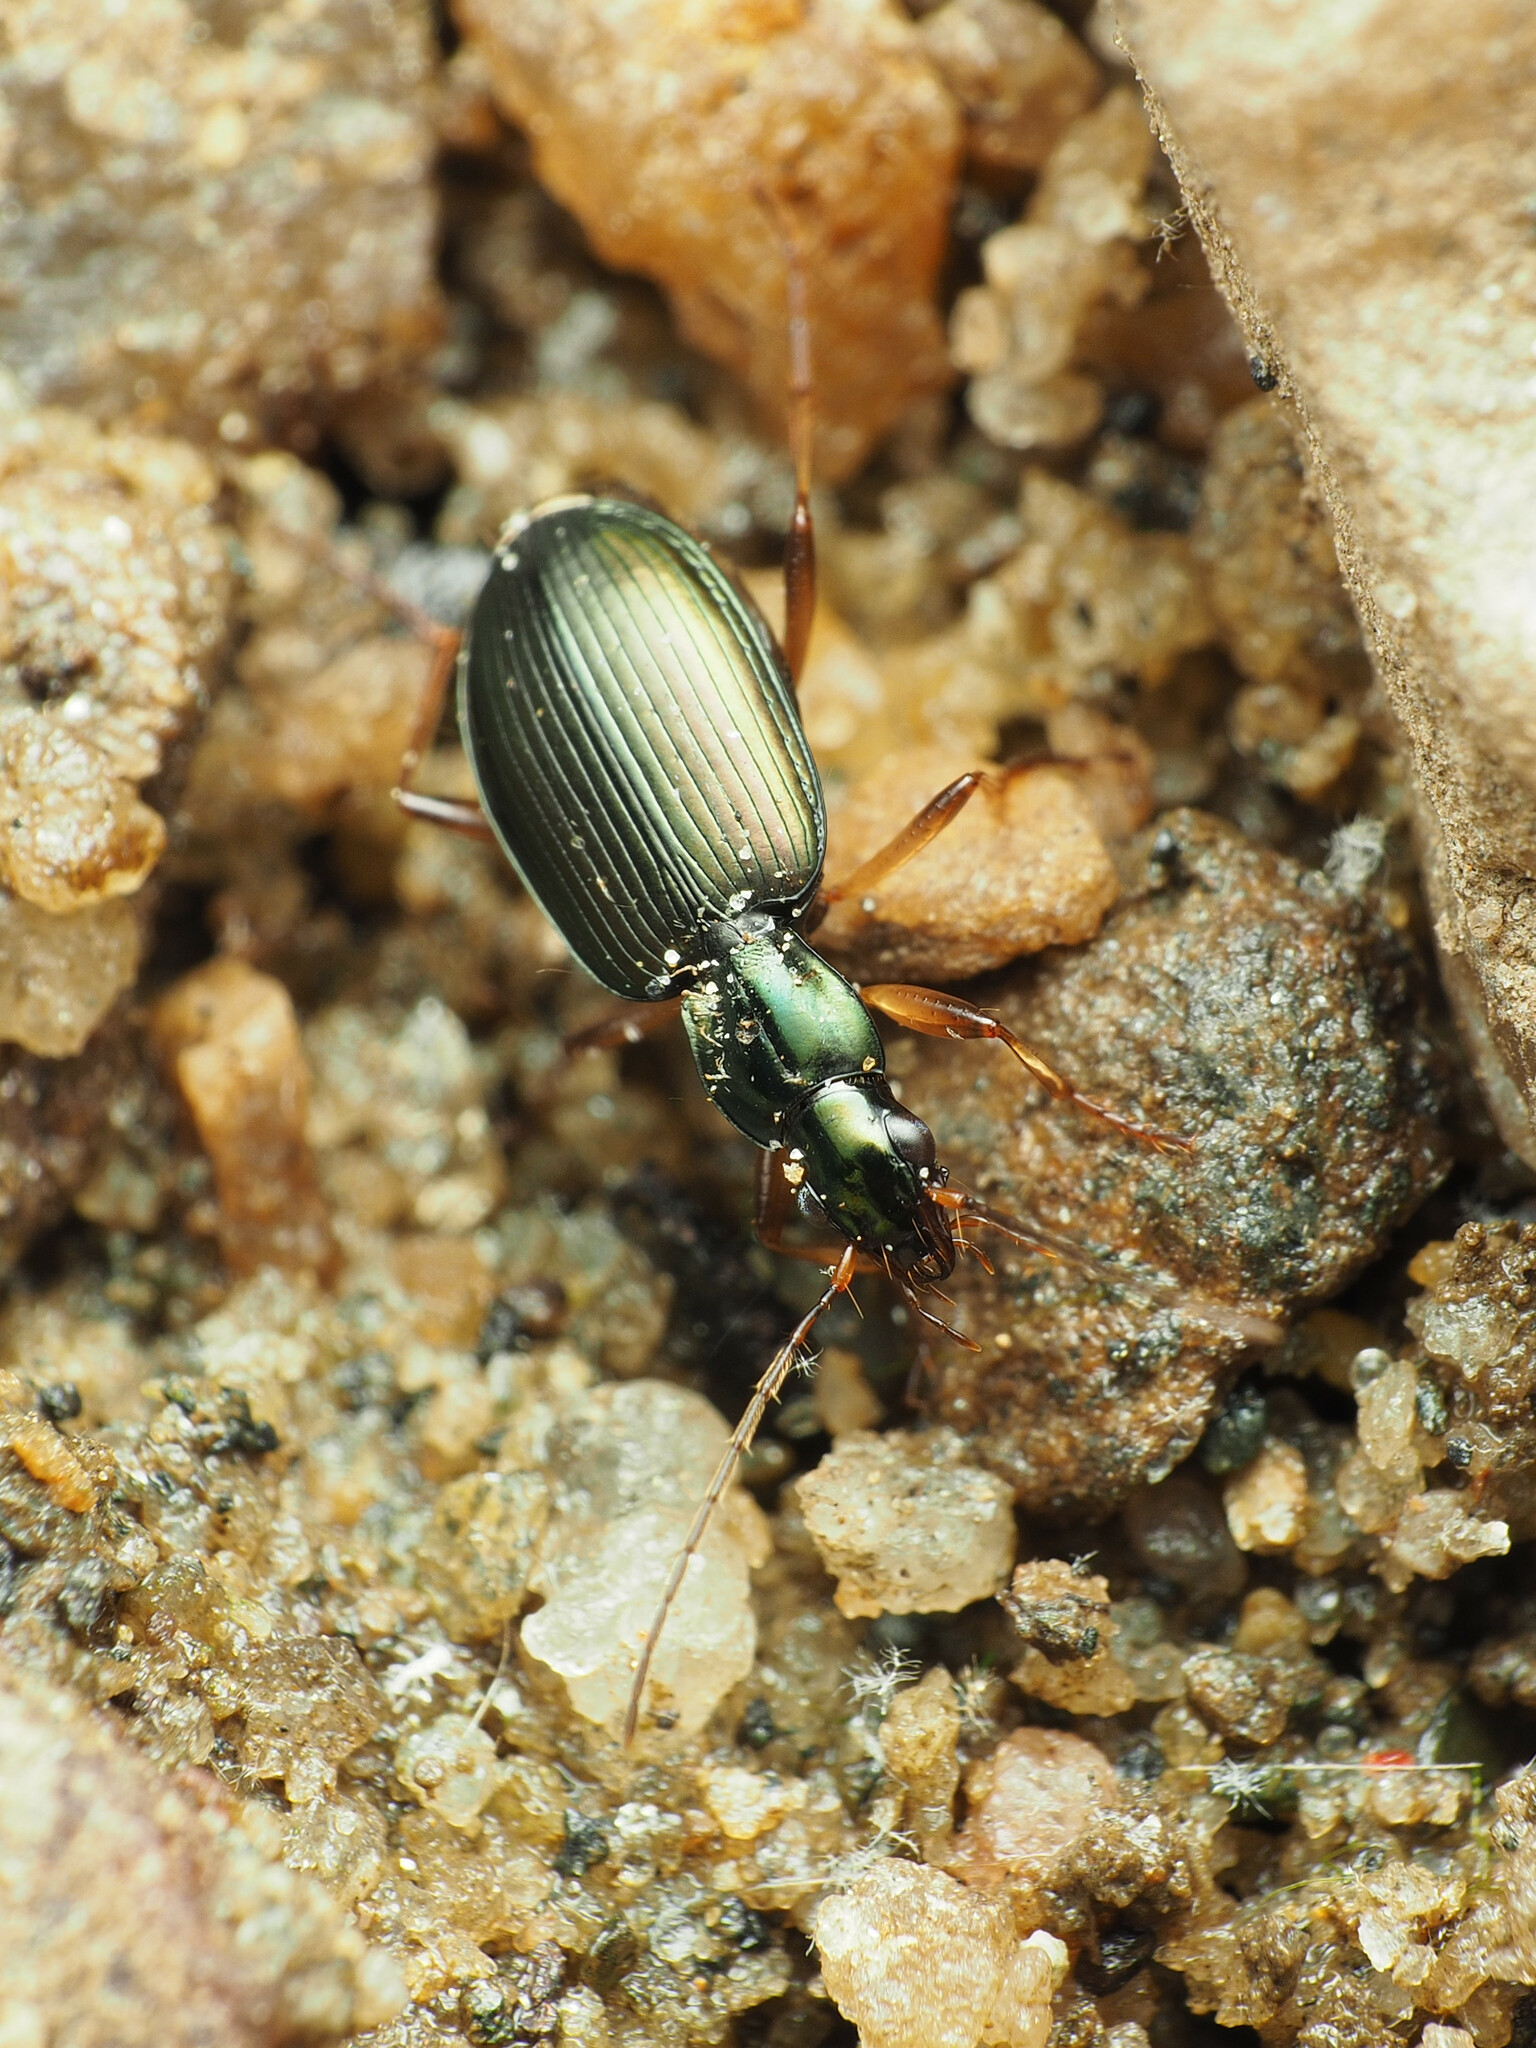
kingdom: Animalia
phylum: Arthropoda
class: Insecta
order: Coleoptera
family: Carabidae
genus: Agonum
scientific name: Agonum extensicolle
